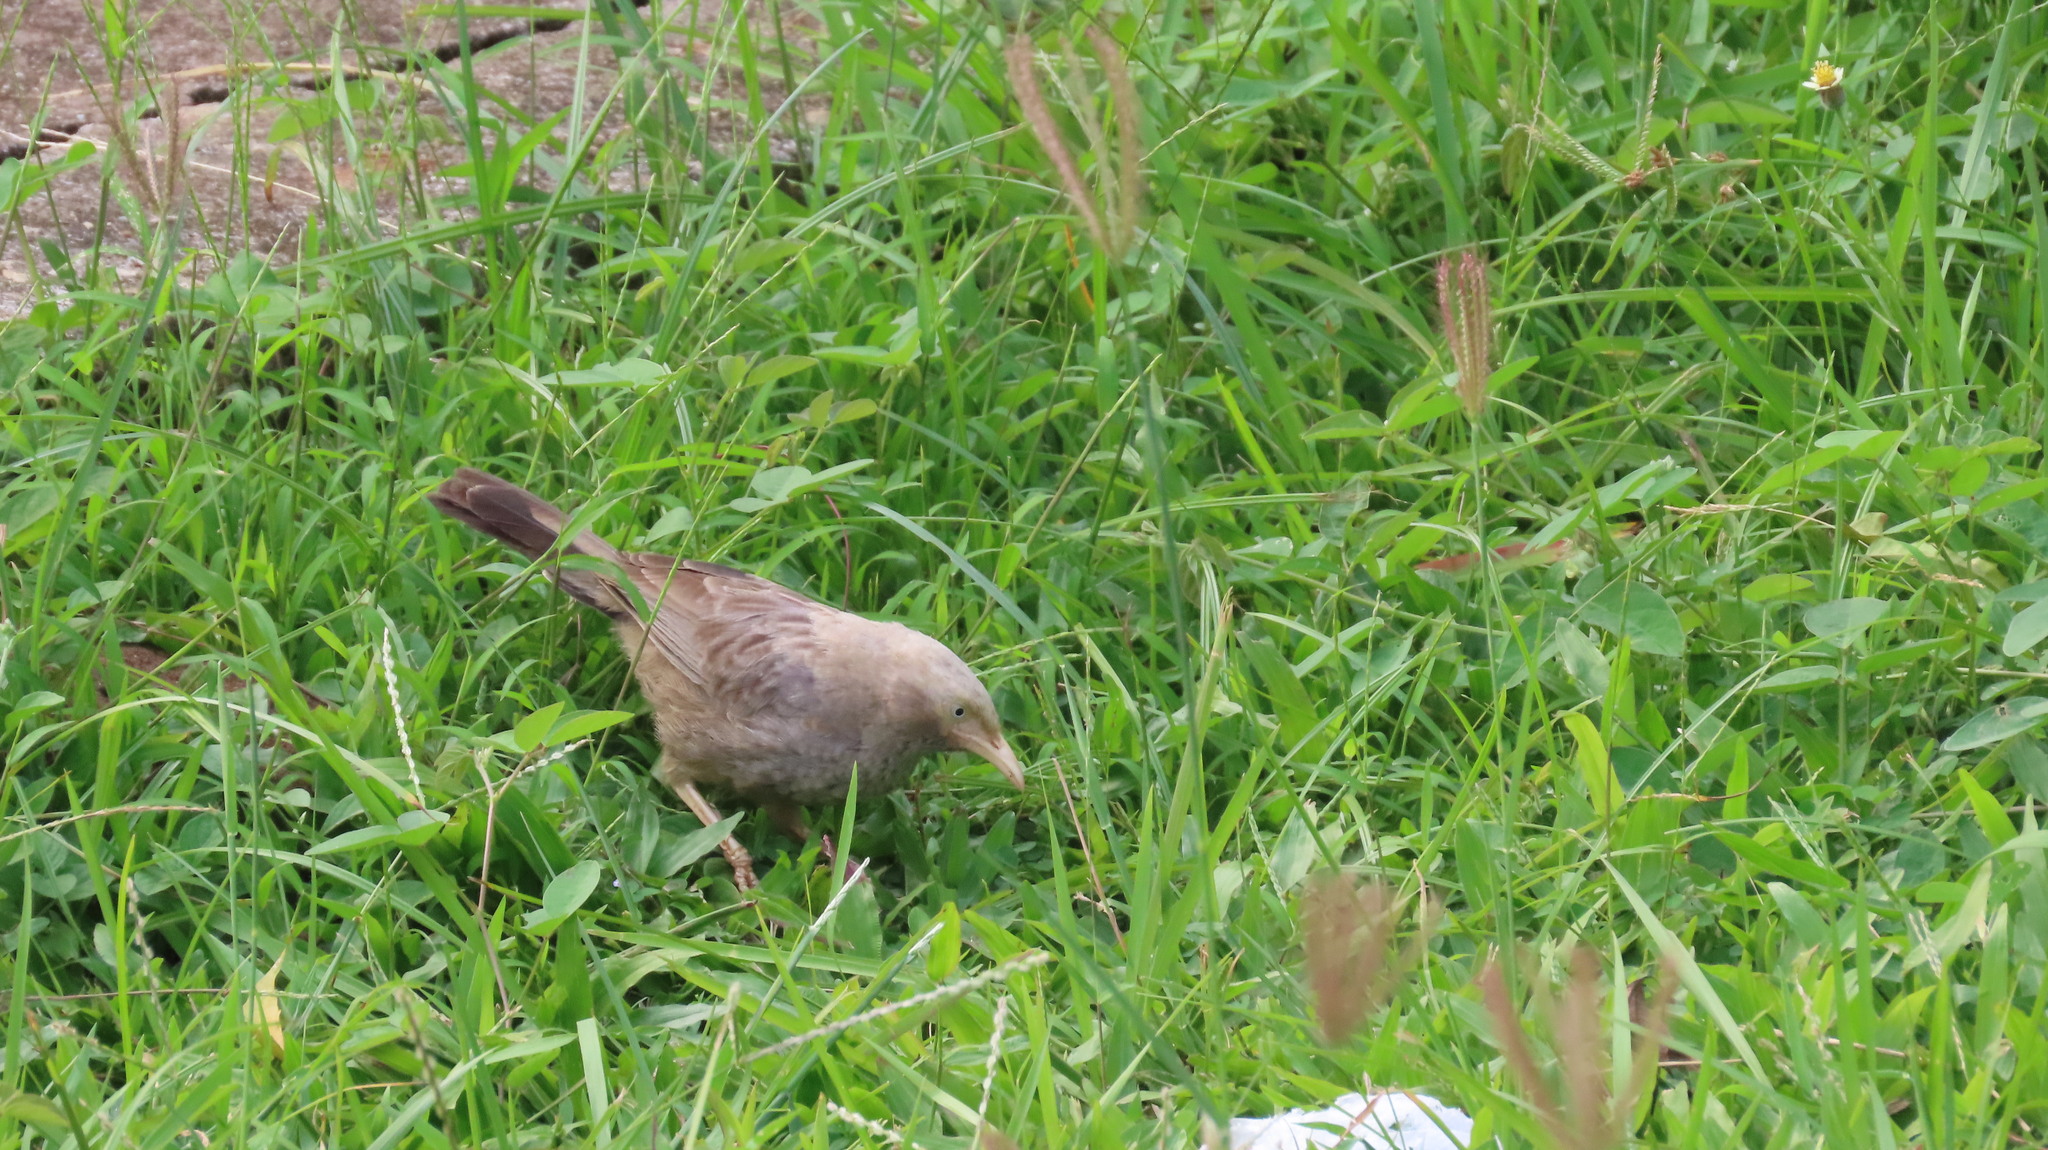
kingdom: Animalia
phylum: Chordata
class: Aves
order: Passeriformes
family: Leiothrichidae
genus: Turdoides
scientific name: Turdoides affinis
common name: Yellow-billed babbler
